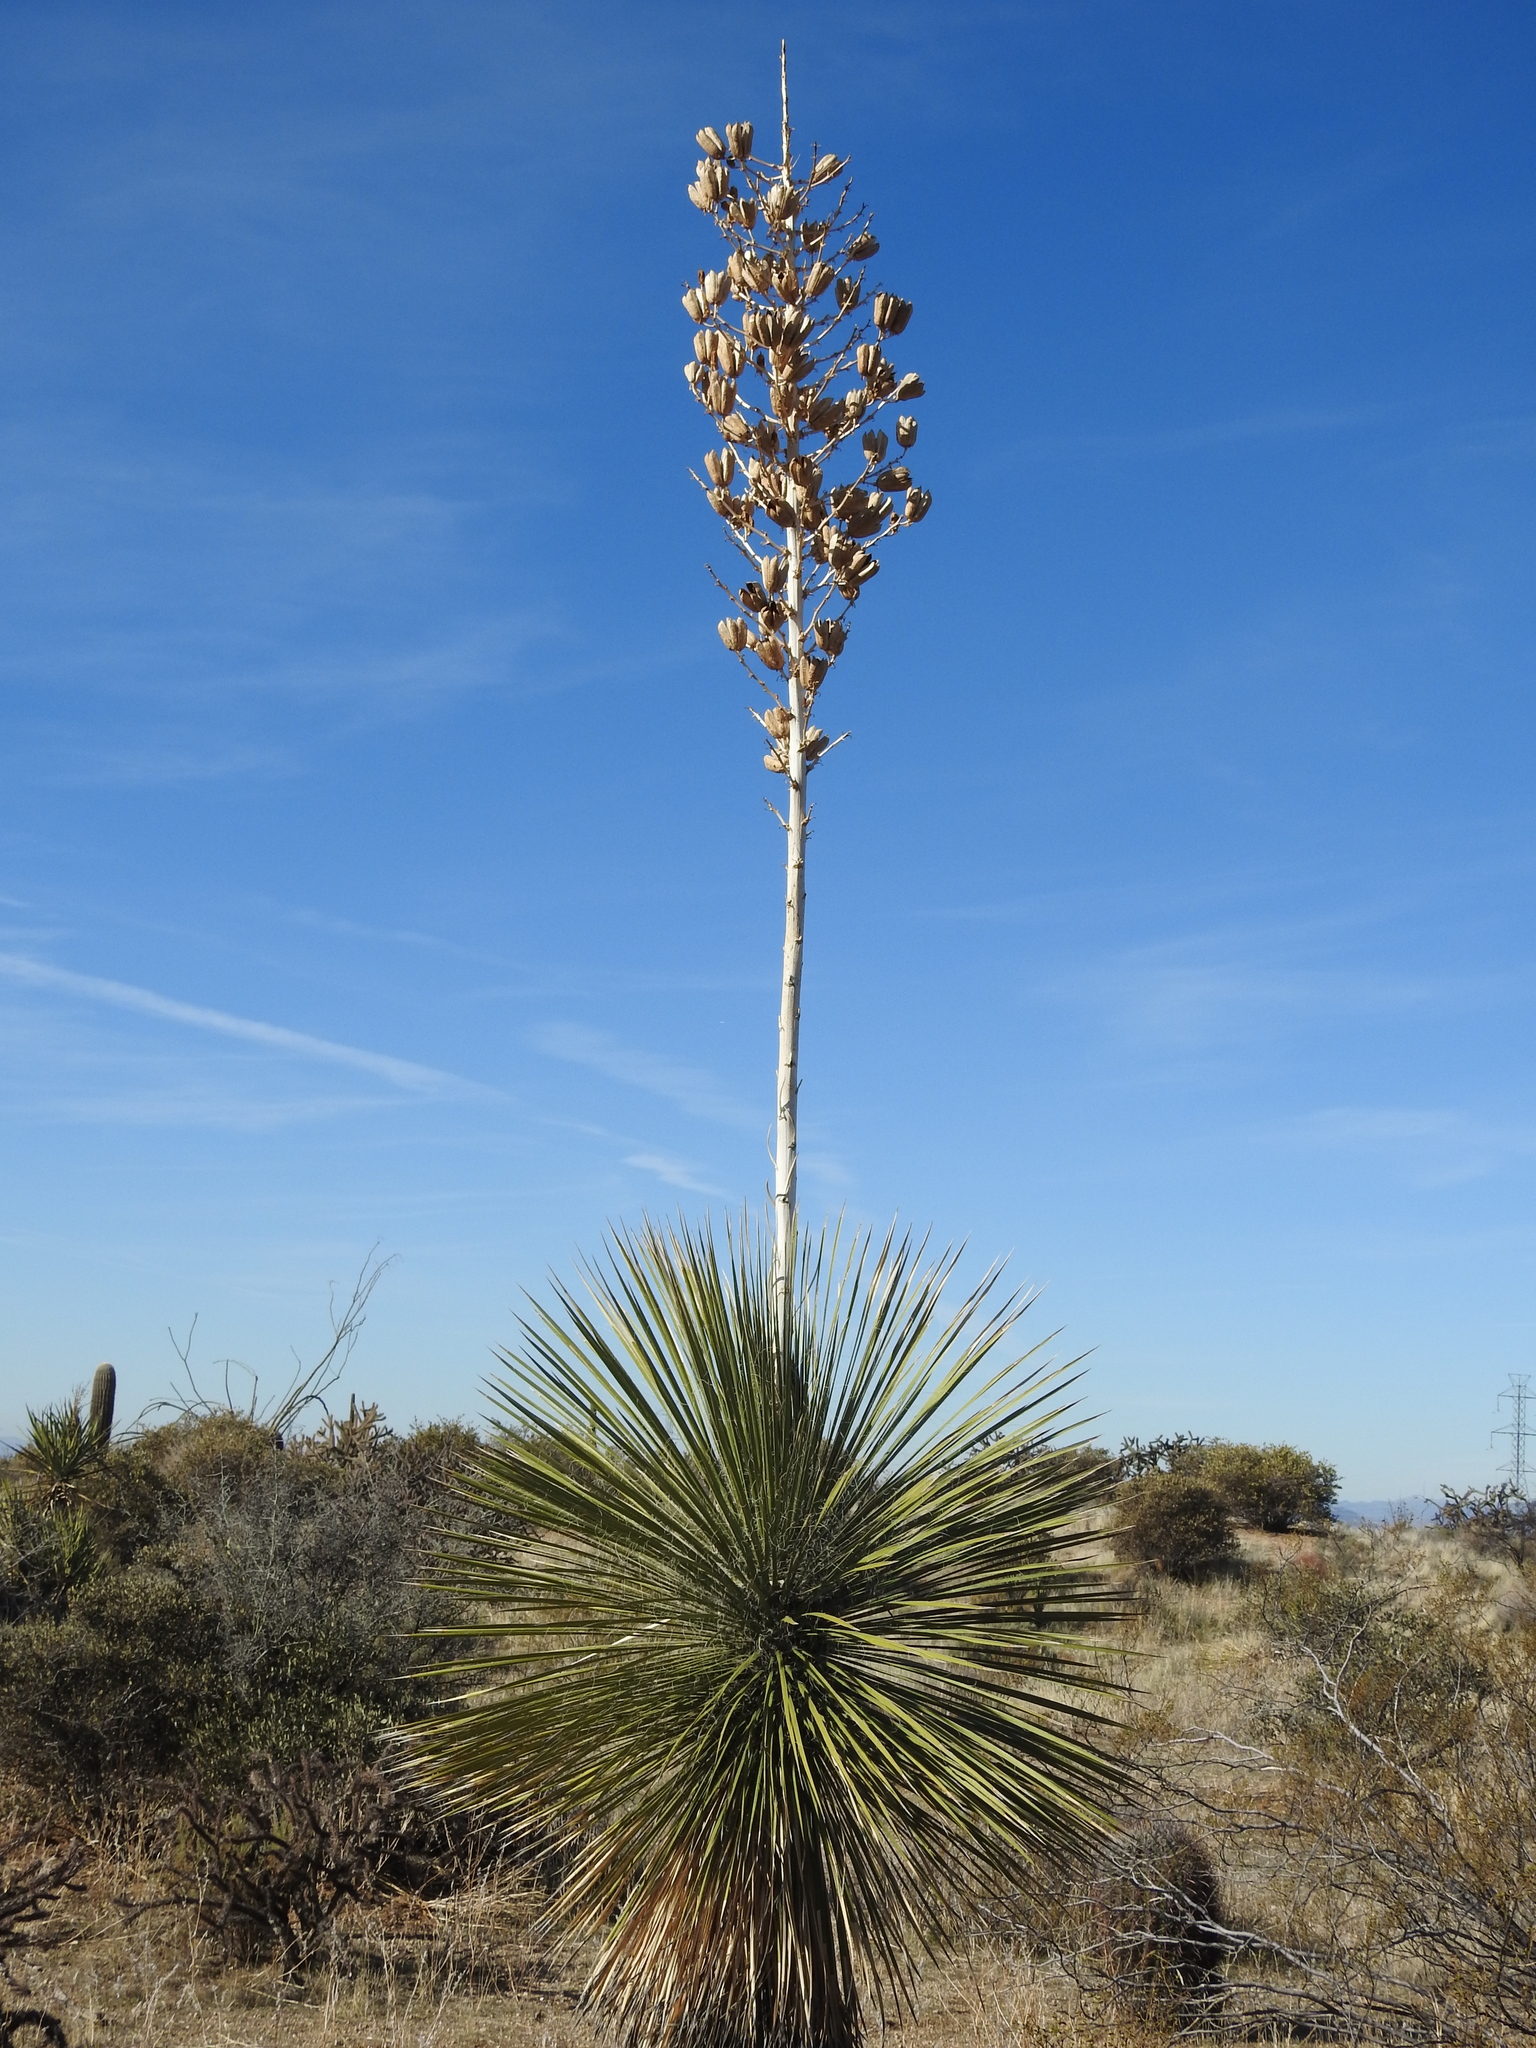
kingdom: Plantae
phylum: Tracheophyta
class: Liliopsida
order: Asparagales
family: Asparagaceae
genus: Yucca
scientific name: Yucca elata
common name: Palmella
